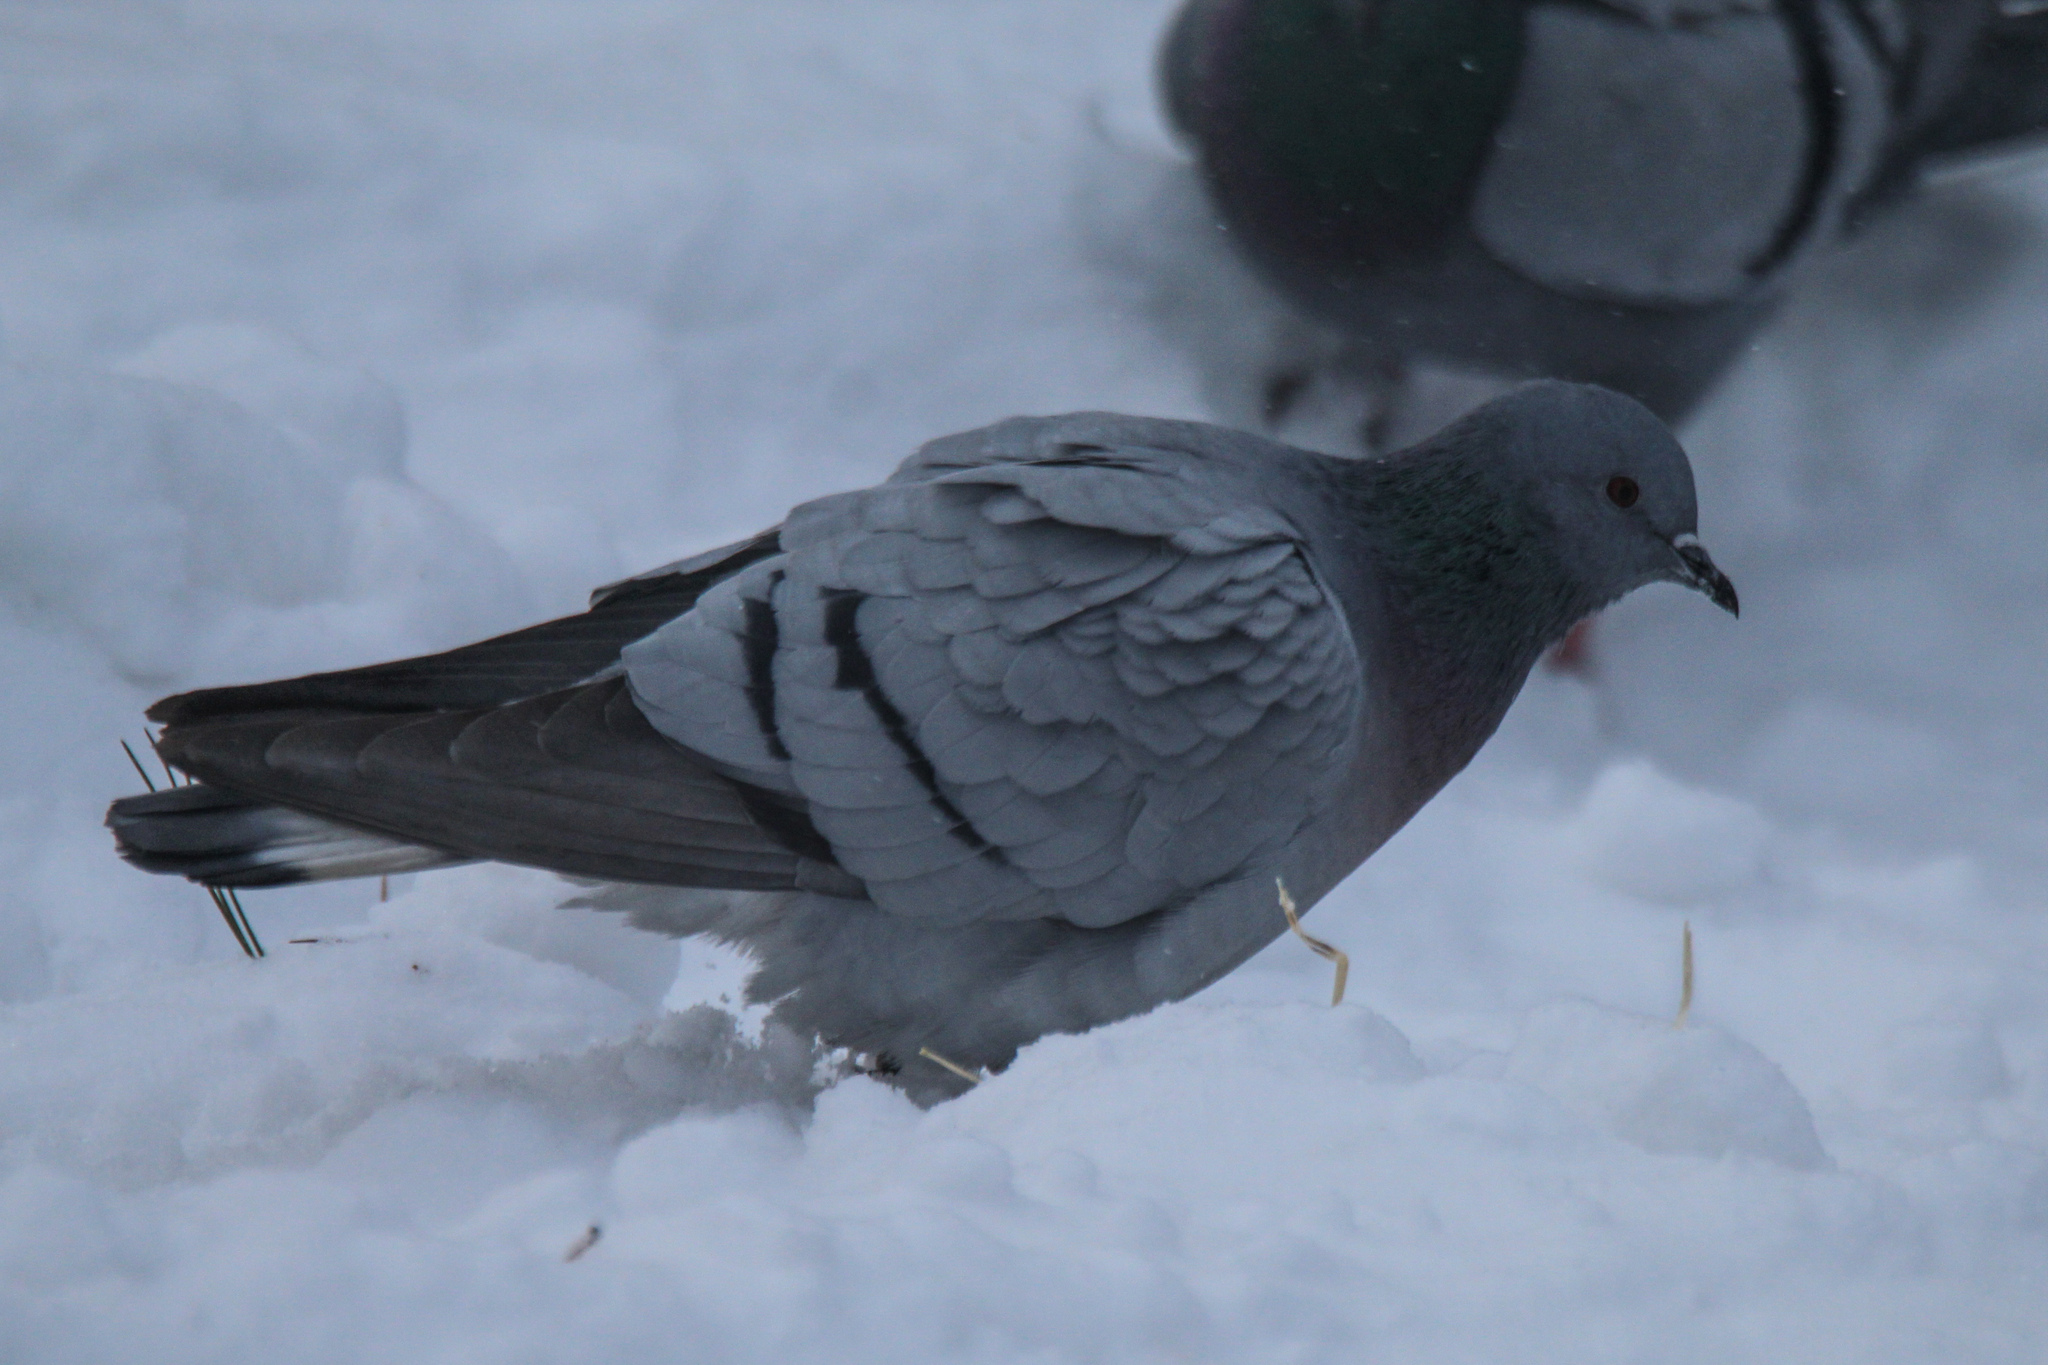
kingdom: Animalia
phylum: Chordata
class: Aves
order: Columbiformes
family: Columbidae
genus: Columba
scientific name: Columba rupestris
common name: Hill pigeon
